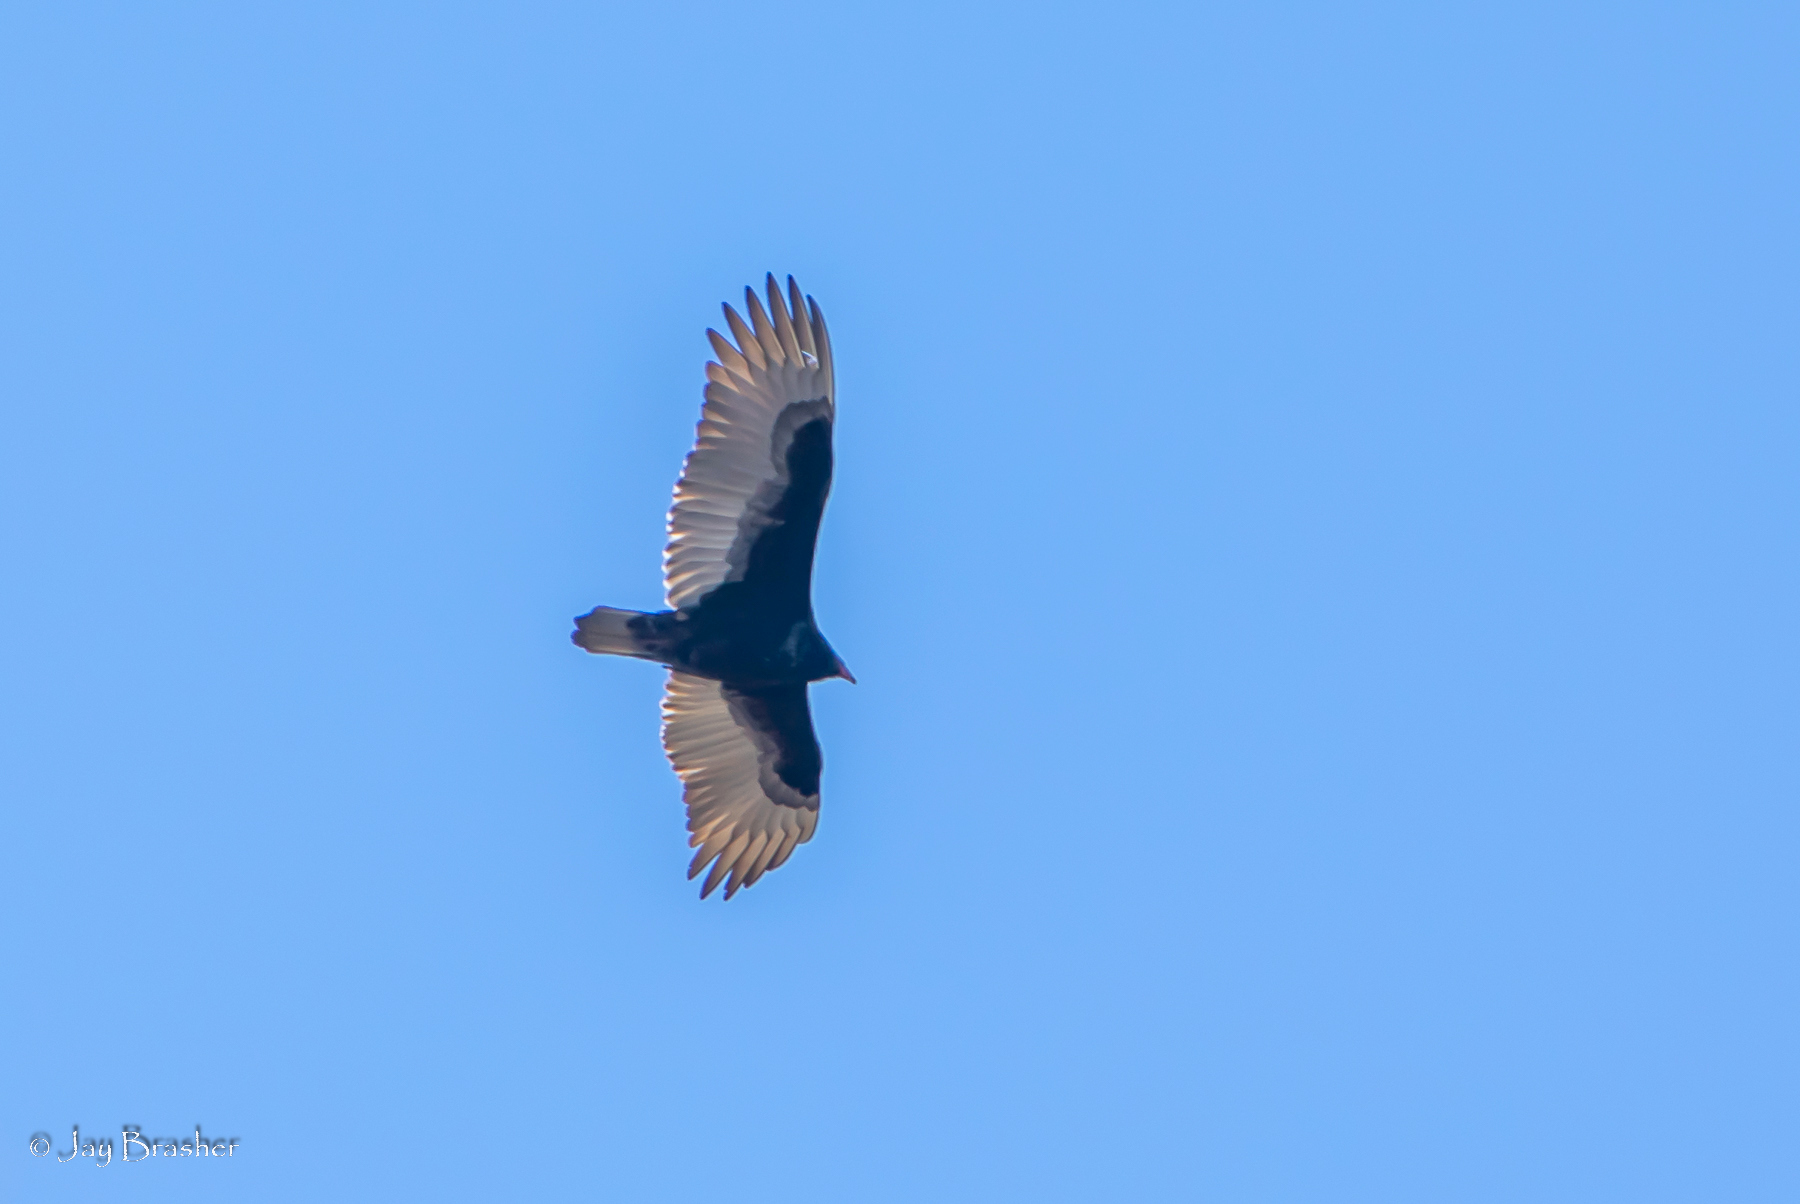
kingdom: Animalia
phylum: Chordata
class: Aves
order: Accipitriformes
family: Cathartidae
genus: Cathartes
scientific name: Cathartes aura
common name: Turkey vulture
